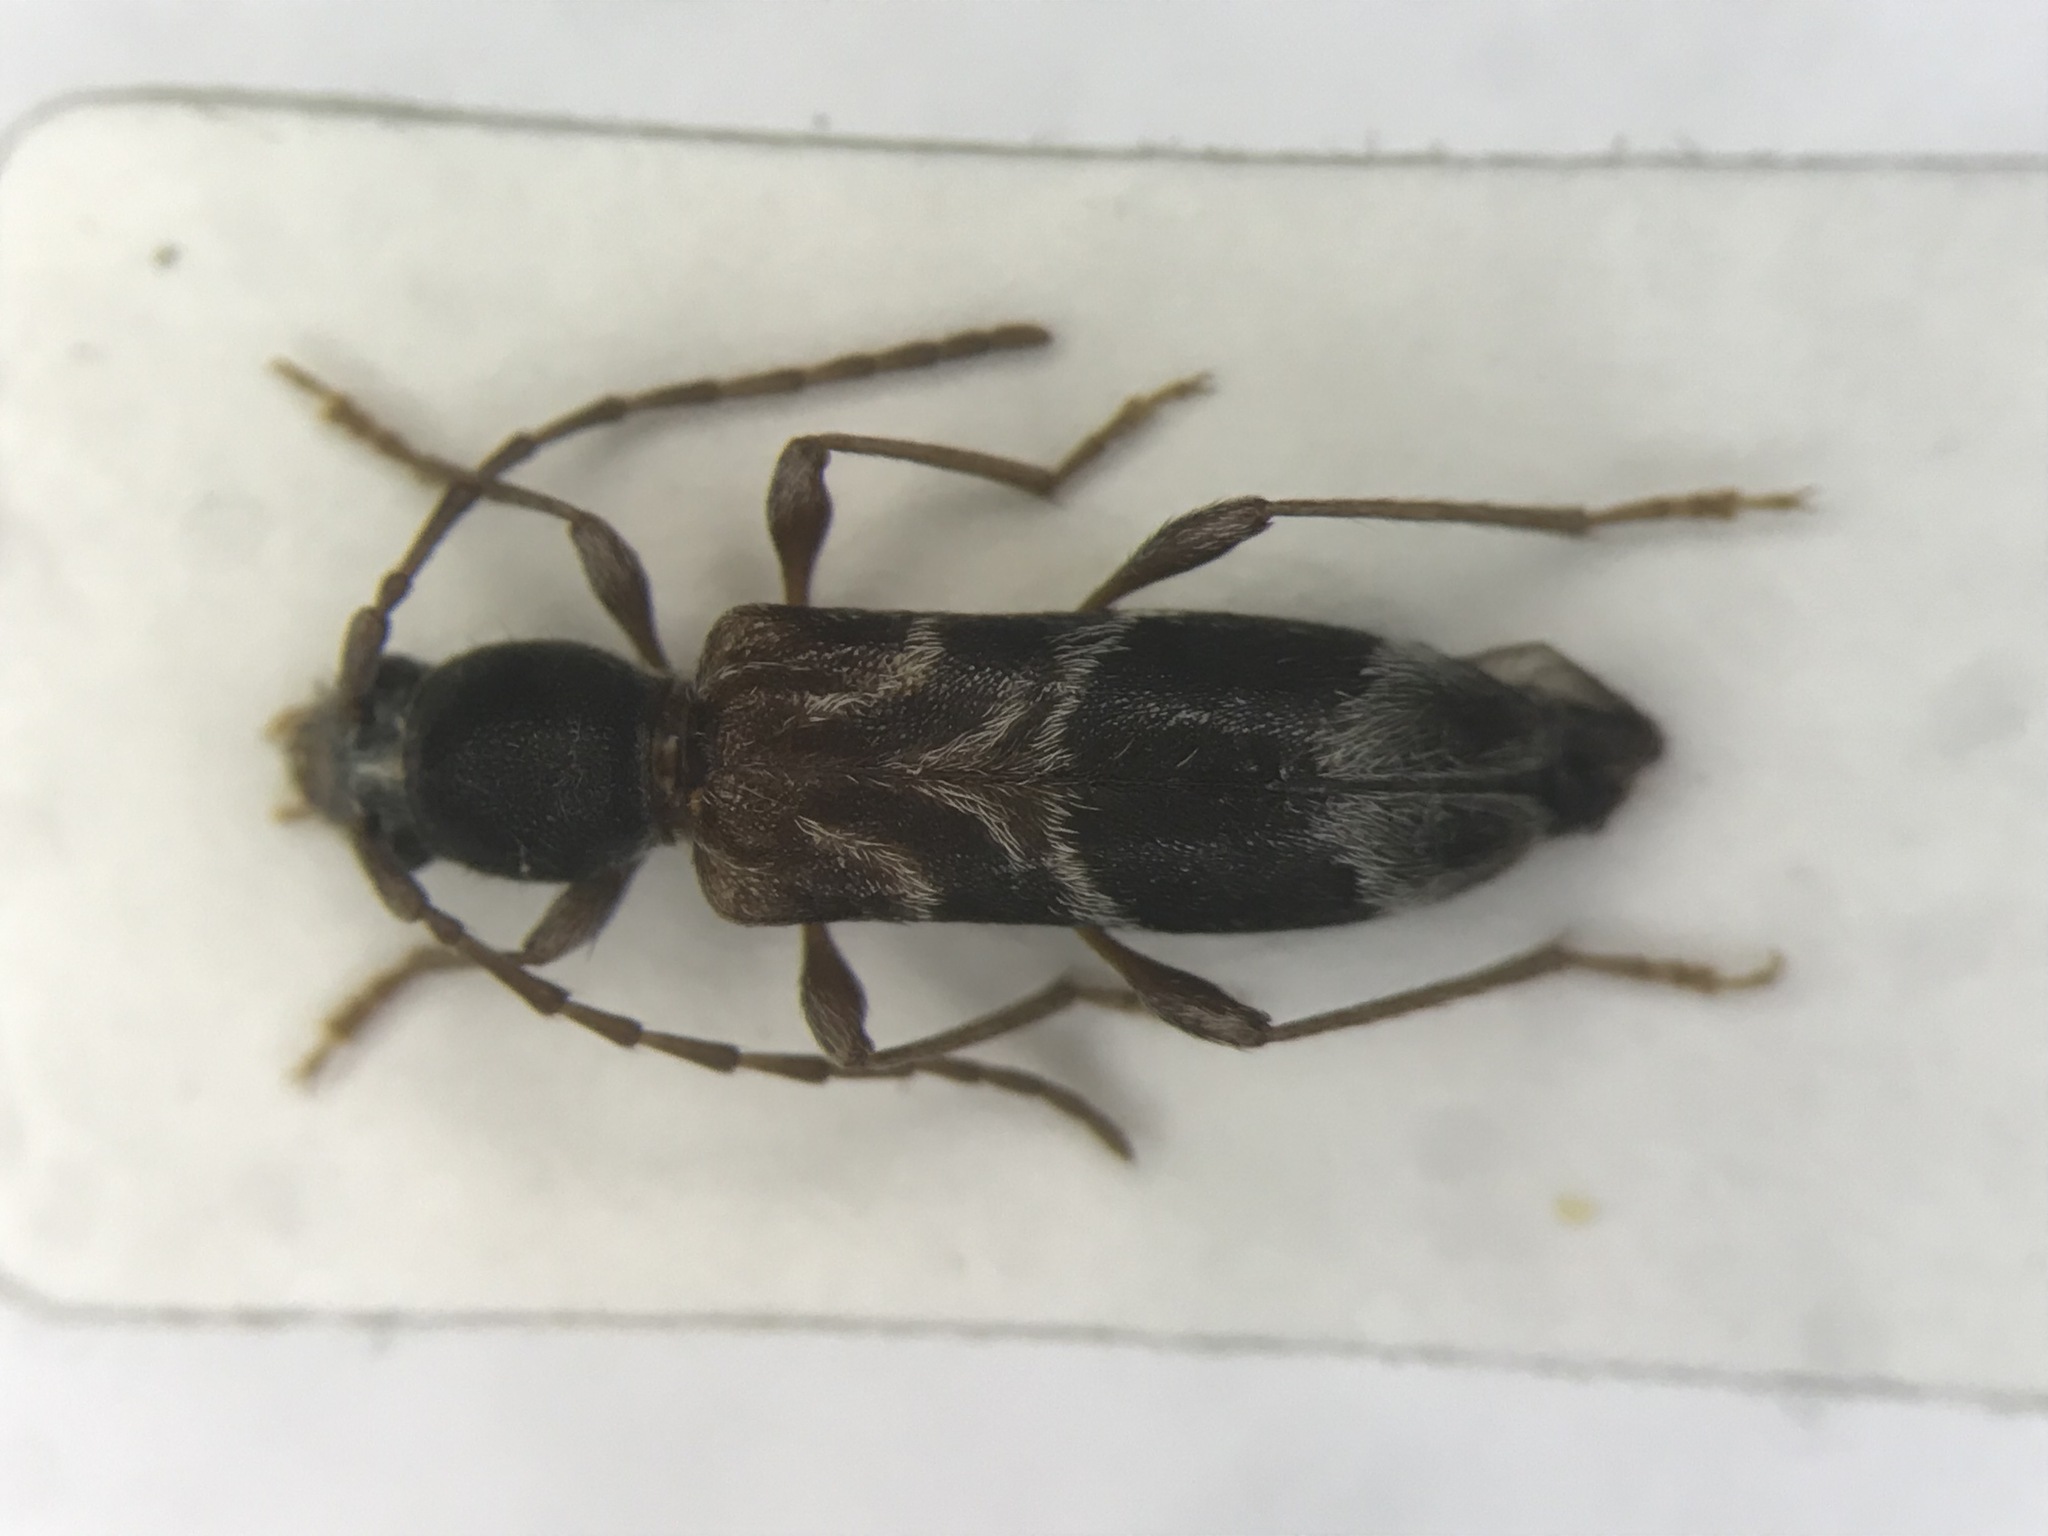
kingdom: Animalia
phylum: Arthropoda
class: Insecta
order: Coleoptera
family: Cerambycidae
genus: Oligoenoplus
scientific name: Oligoenoplus compressicollis
